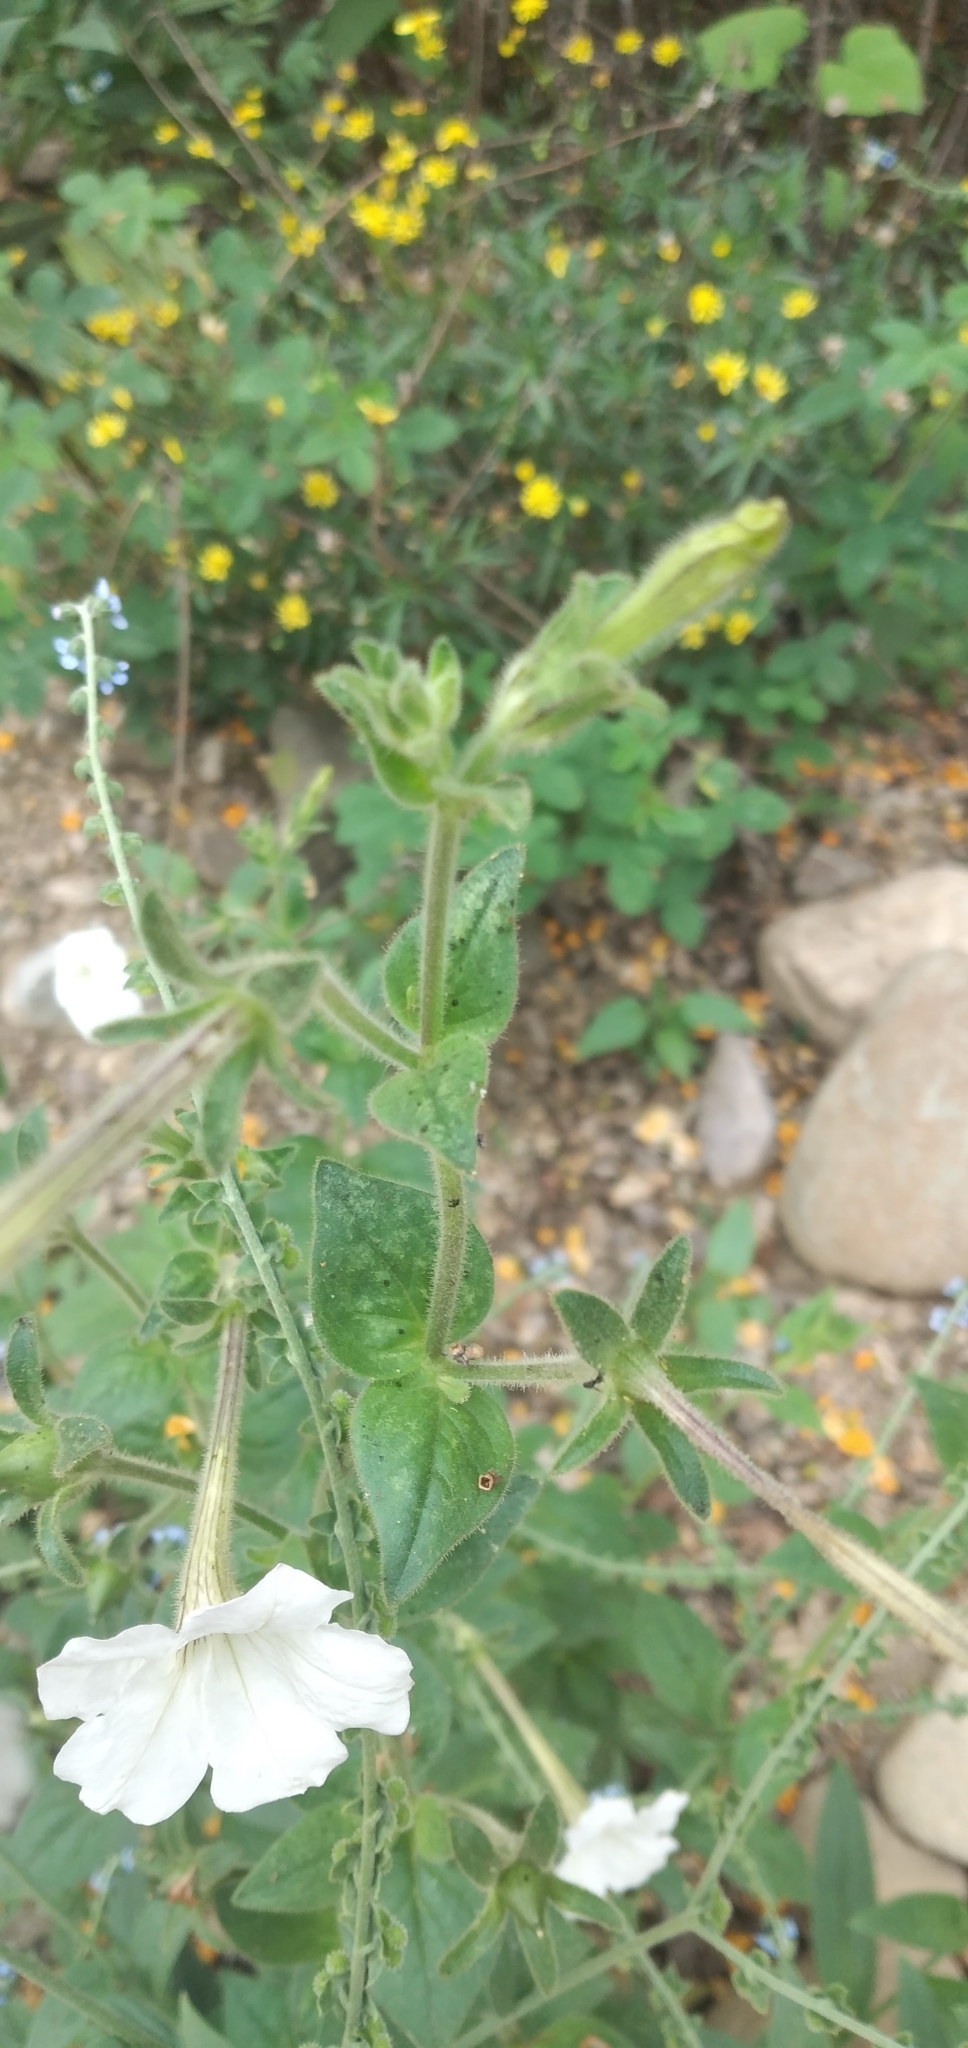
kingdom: Plantae
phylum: Tracheophyta
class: Magnoliopsida
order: Solanales
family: Solanaceae
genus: Petunia
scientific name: Petunia axillaris
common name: Large white petunia
